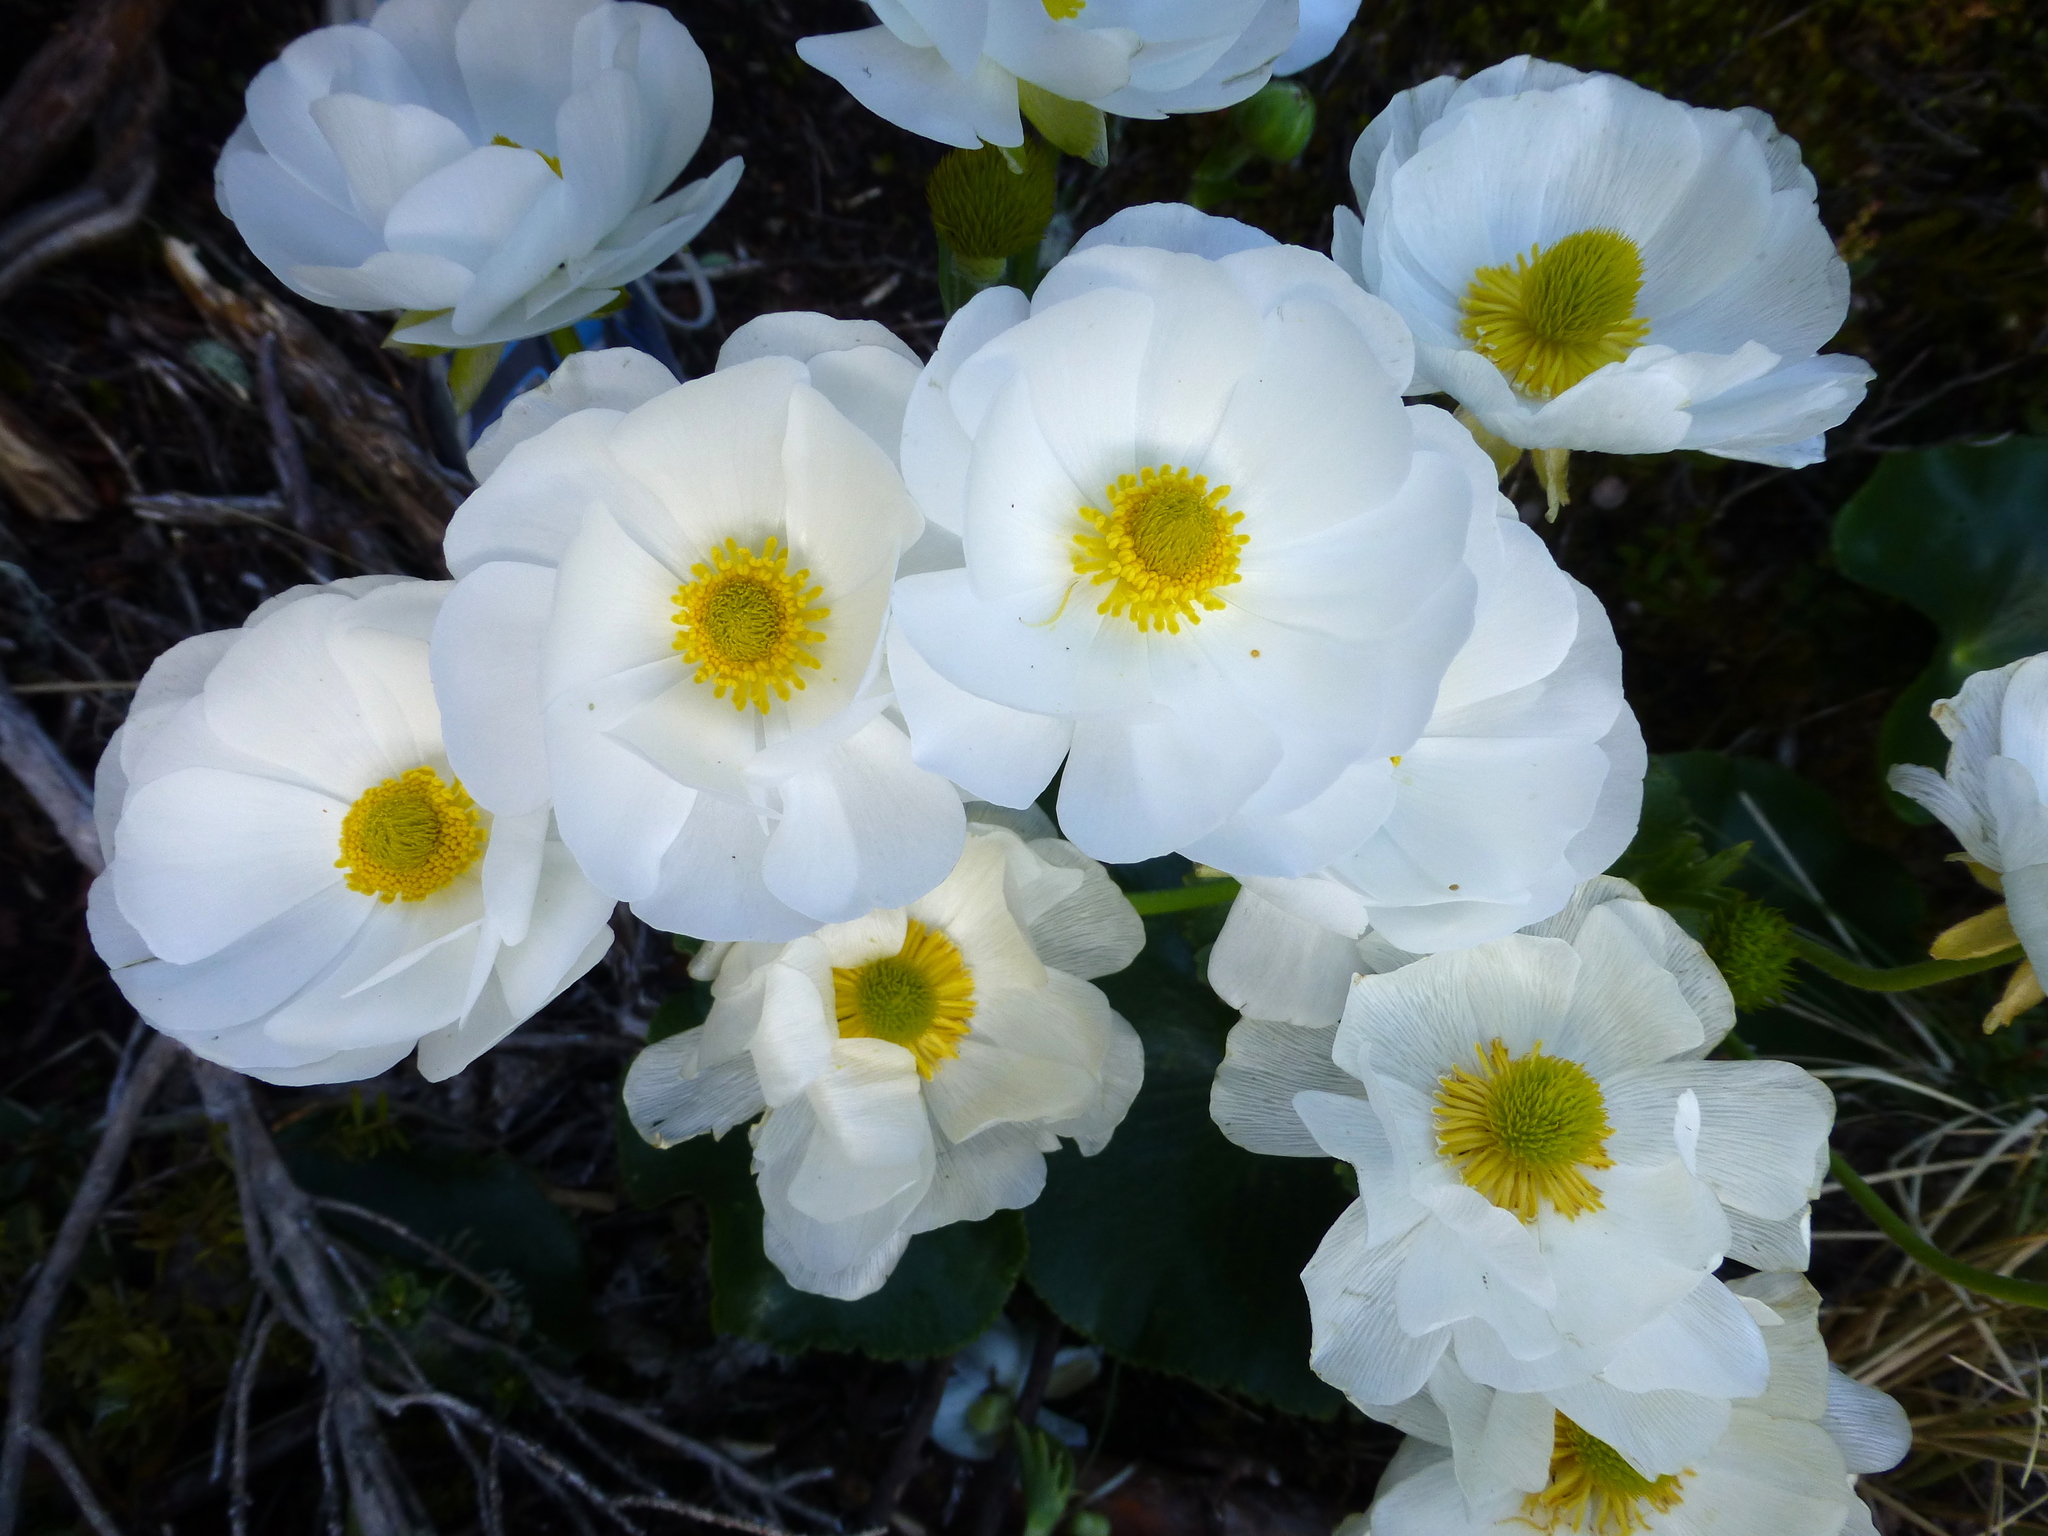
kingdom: Plantae
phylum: Tracheophyta
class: Magnoliopsida
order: Ranunculales
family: Ranunculaceae
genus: Ranunculus
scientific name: Ranunculus lyallii
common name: Mountain-lily
